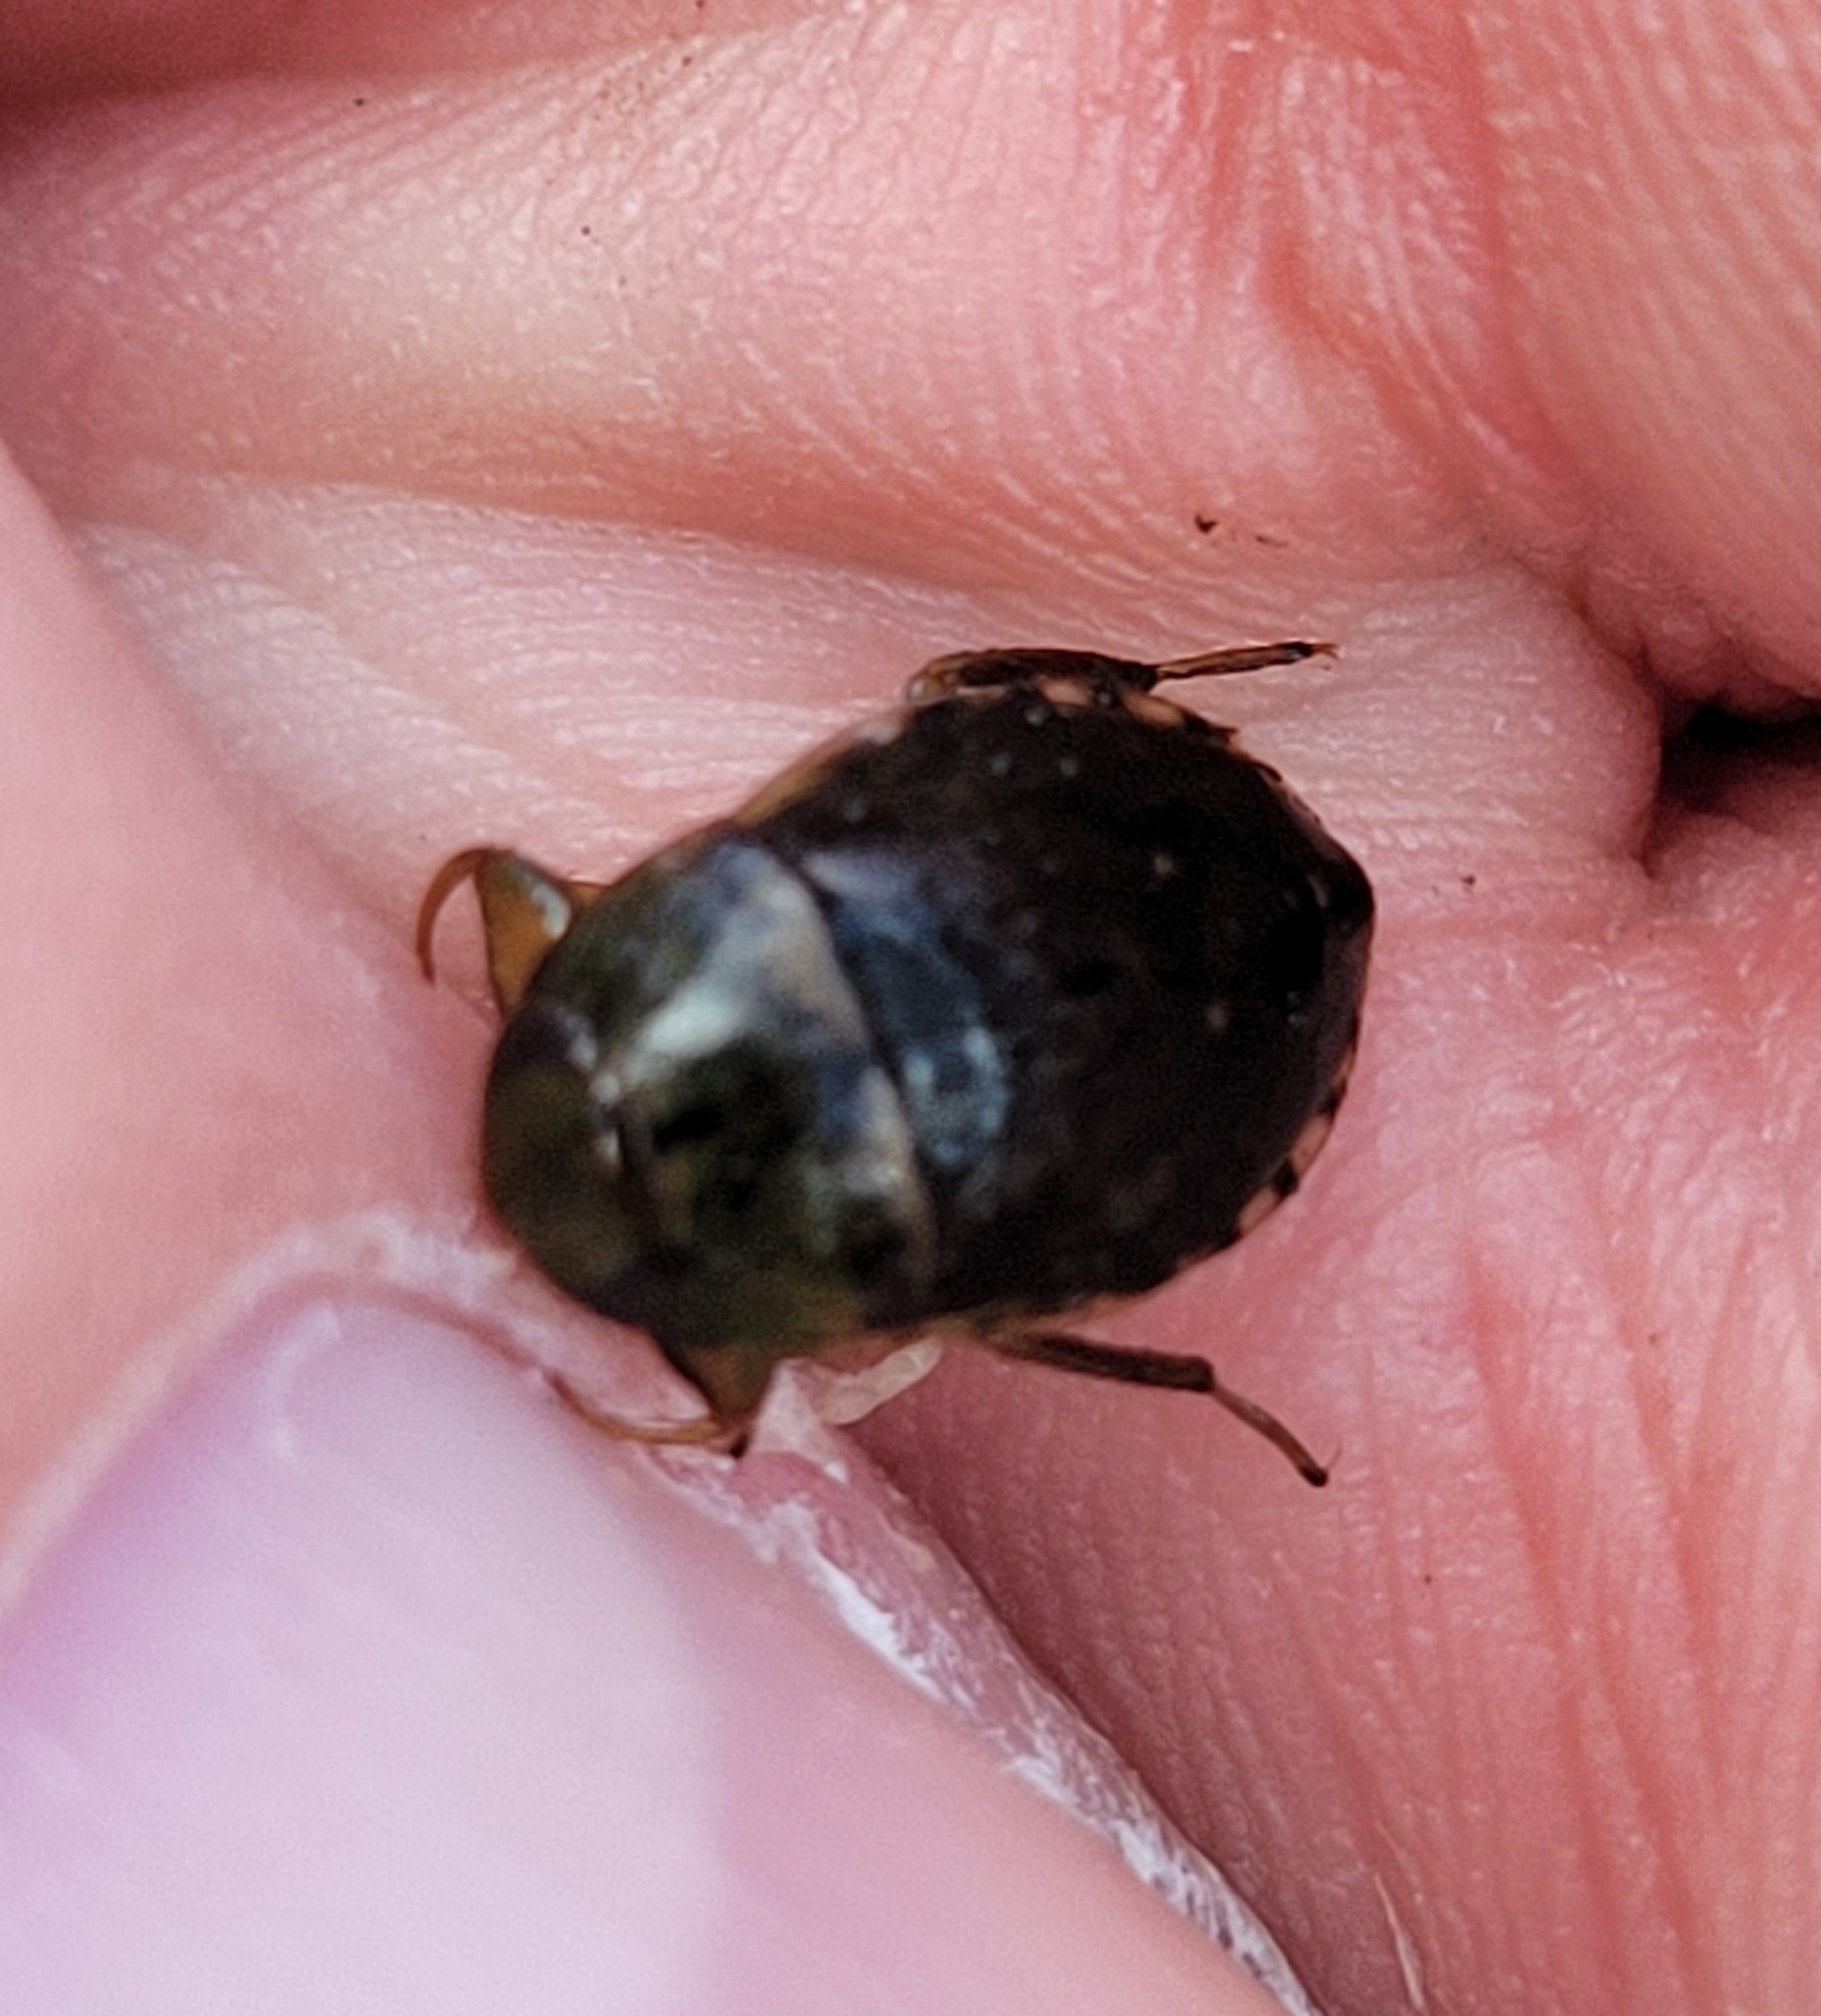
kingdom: Animalia
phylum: Arthropoda
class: Insecta
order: Hemiptera
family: Naucoridae
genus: Pelocoris
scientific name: Pelocoris femoratus
